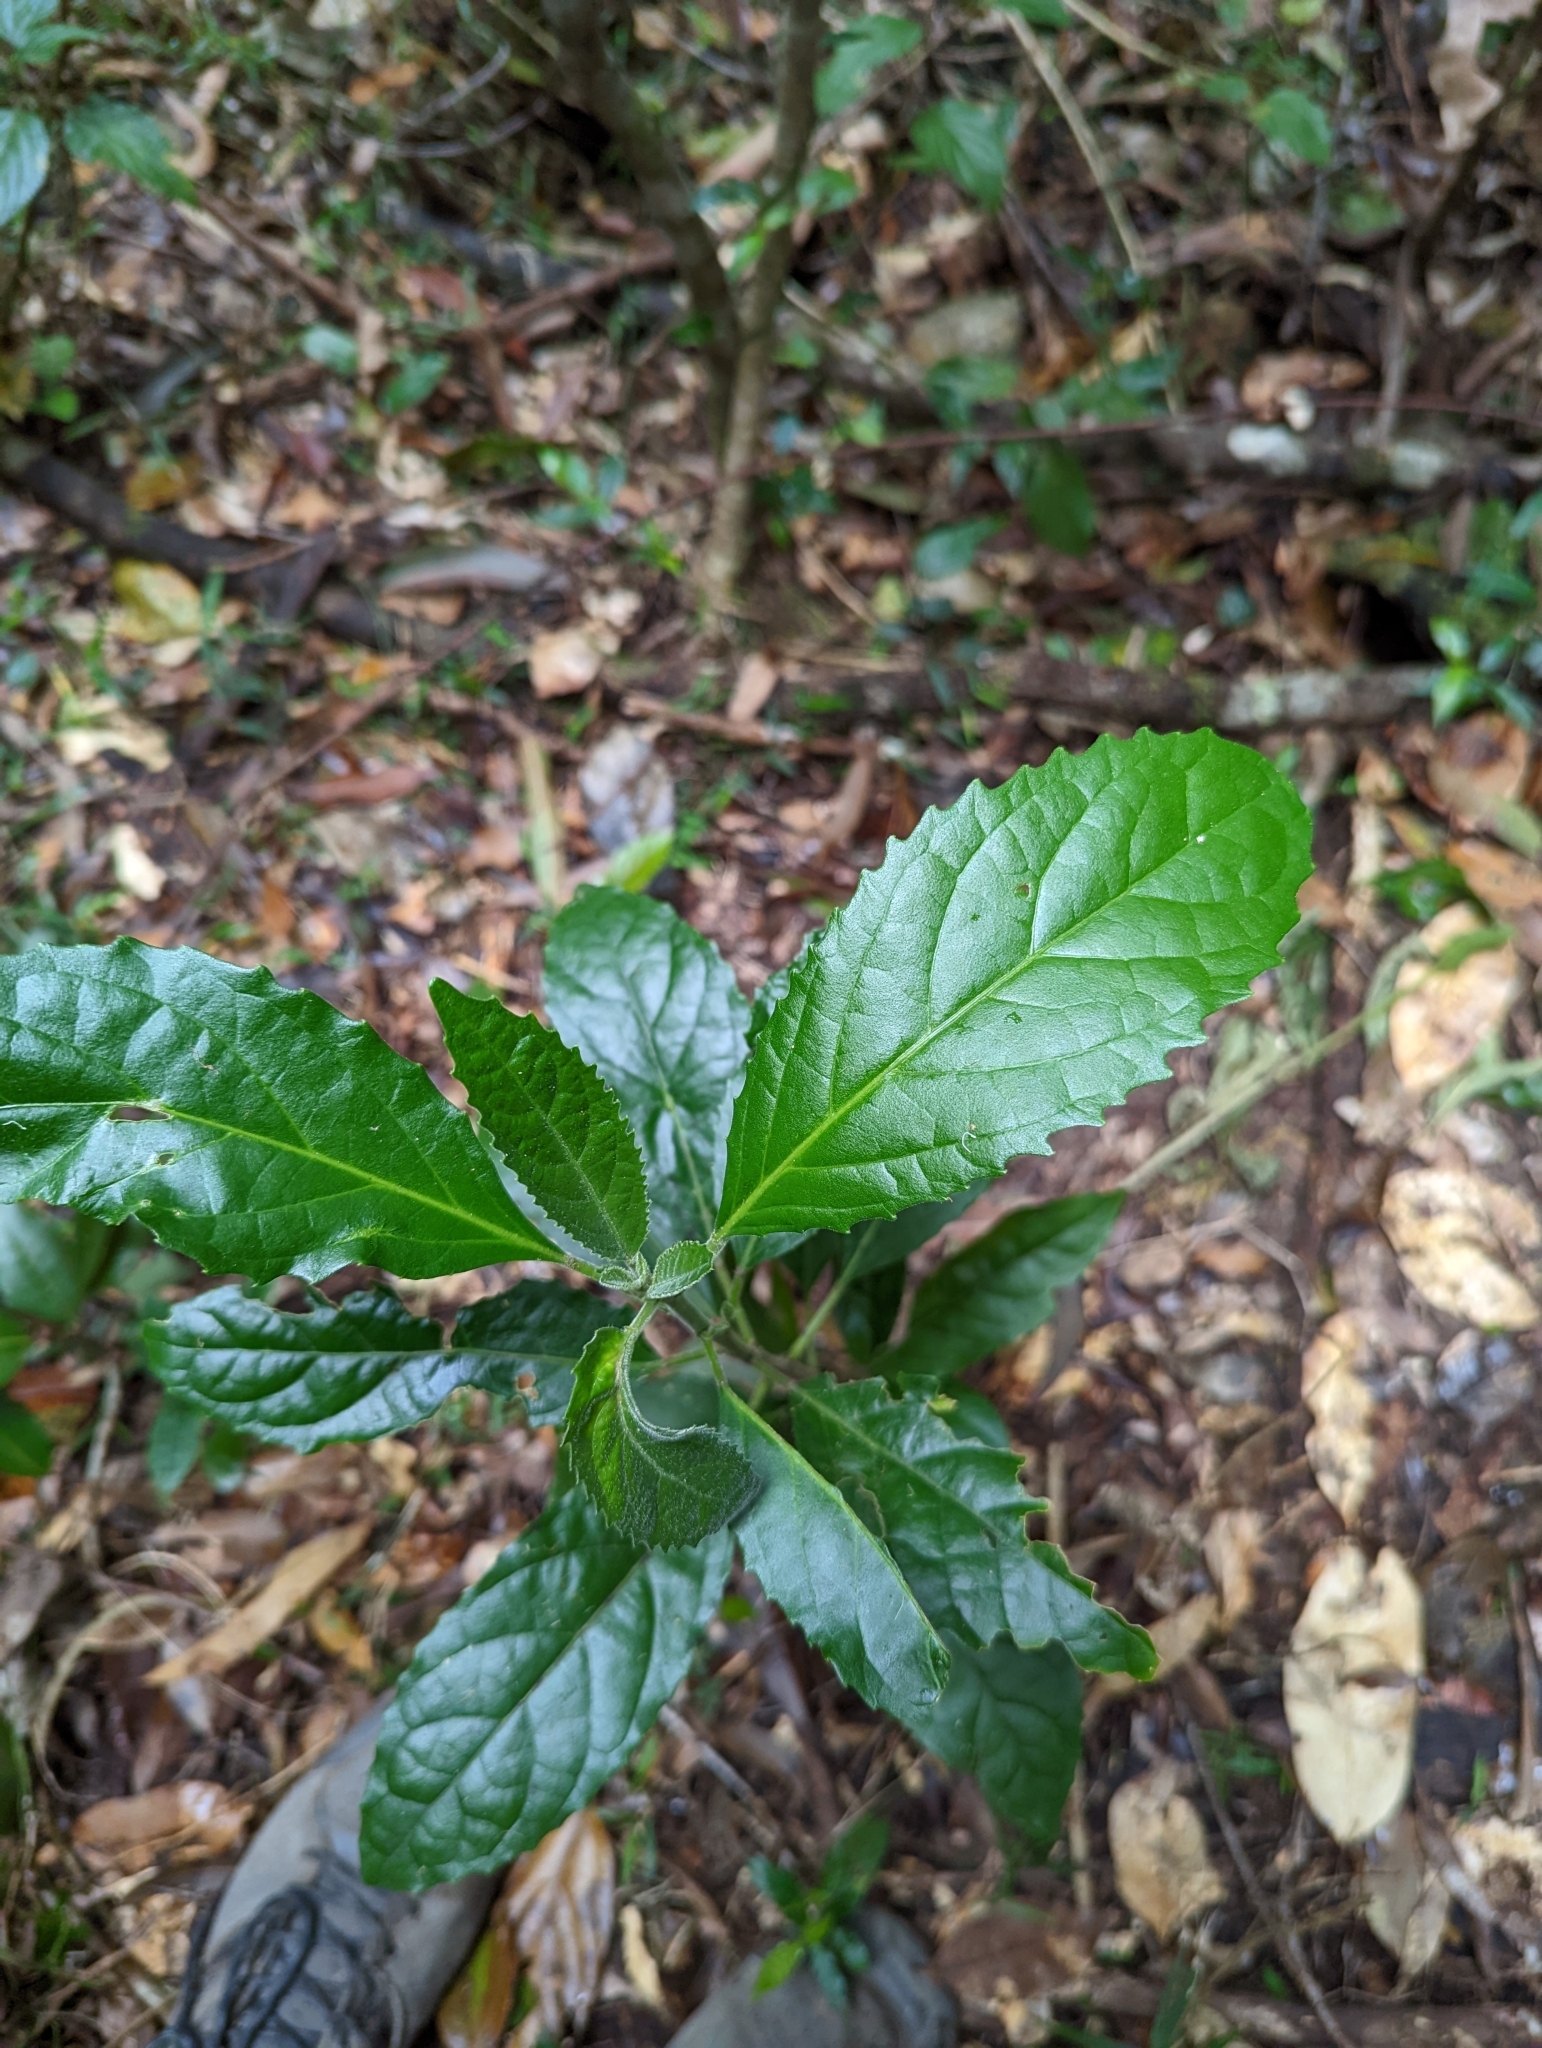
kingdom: Plantae
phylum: Tracheophyta
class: Magnoliopsida
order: Malpighiales
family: Euphorbiaceae
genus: Claoxylon
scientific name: Claoxylon australe
